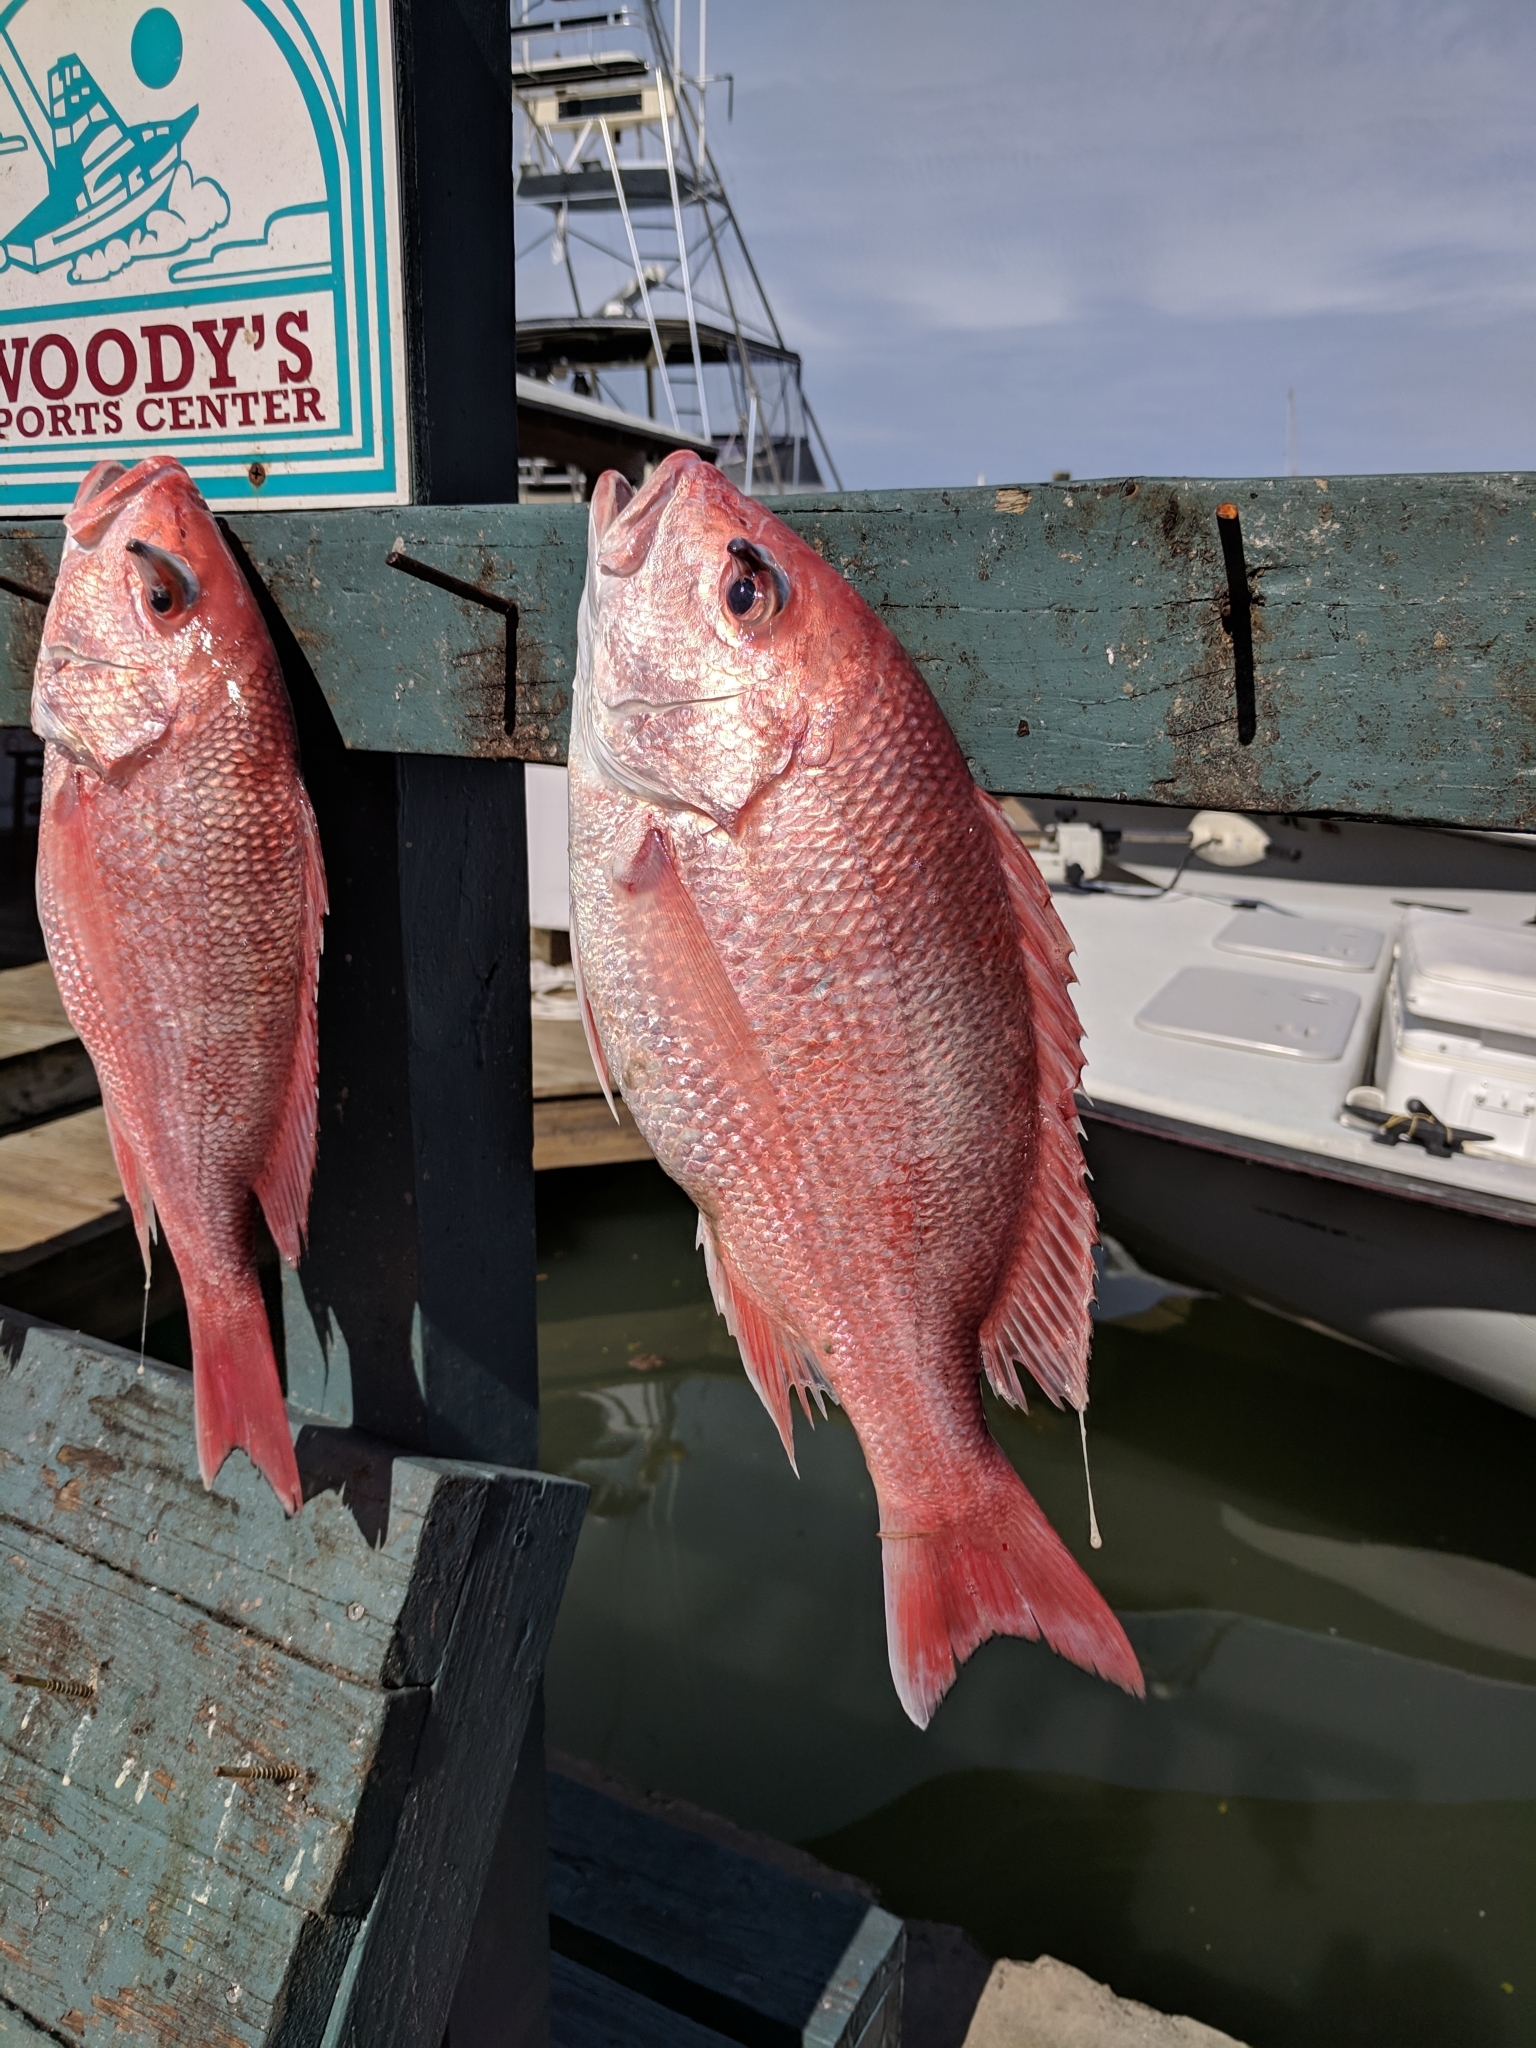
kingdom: Animalia
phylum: Chordata
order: Perciformes
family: Lutjanidae
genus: Lutjanus
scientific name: Lutjanus campechanus
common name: Red snapper
